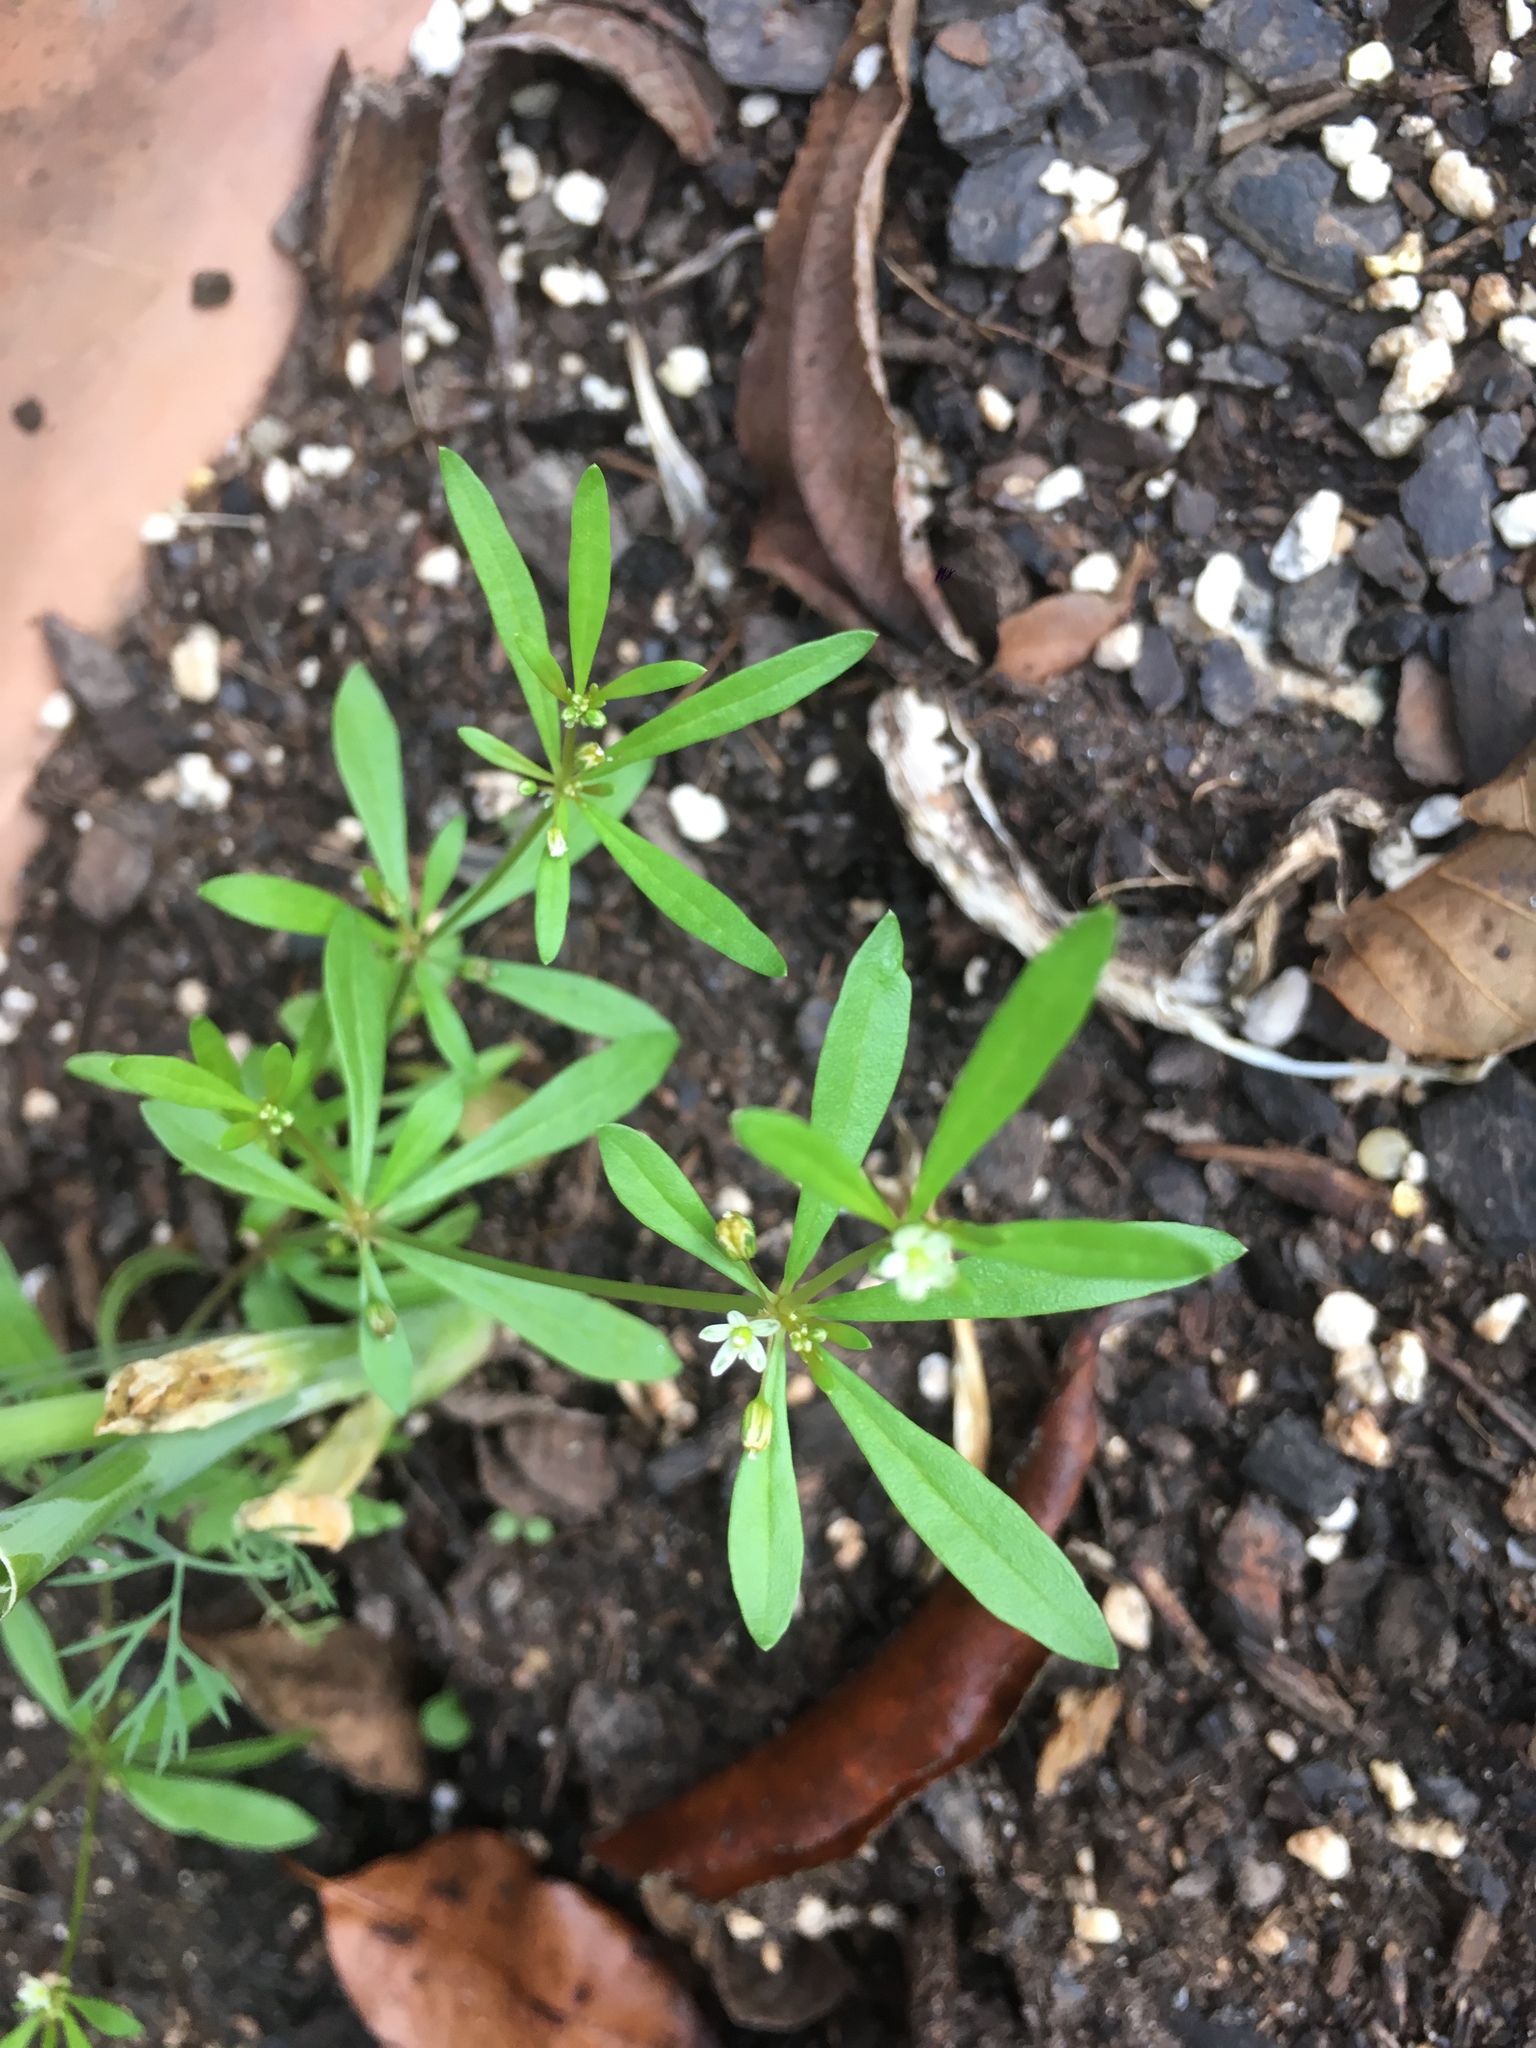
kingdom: Plantae
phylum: Tracheophyta
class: Magnoliopsida
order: Caryophyllales
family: Molluginaceae
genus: Mollugo
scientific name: Mollugo verticillata
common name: Green carpetweed
